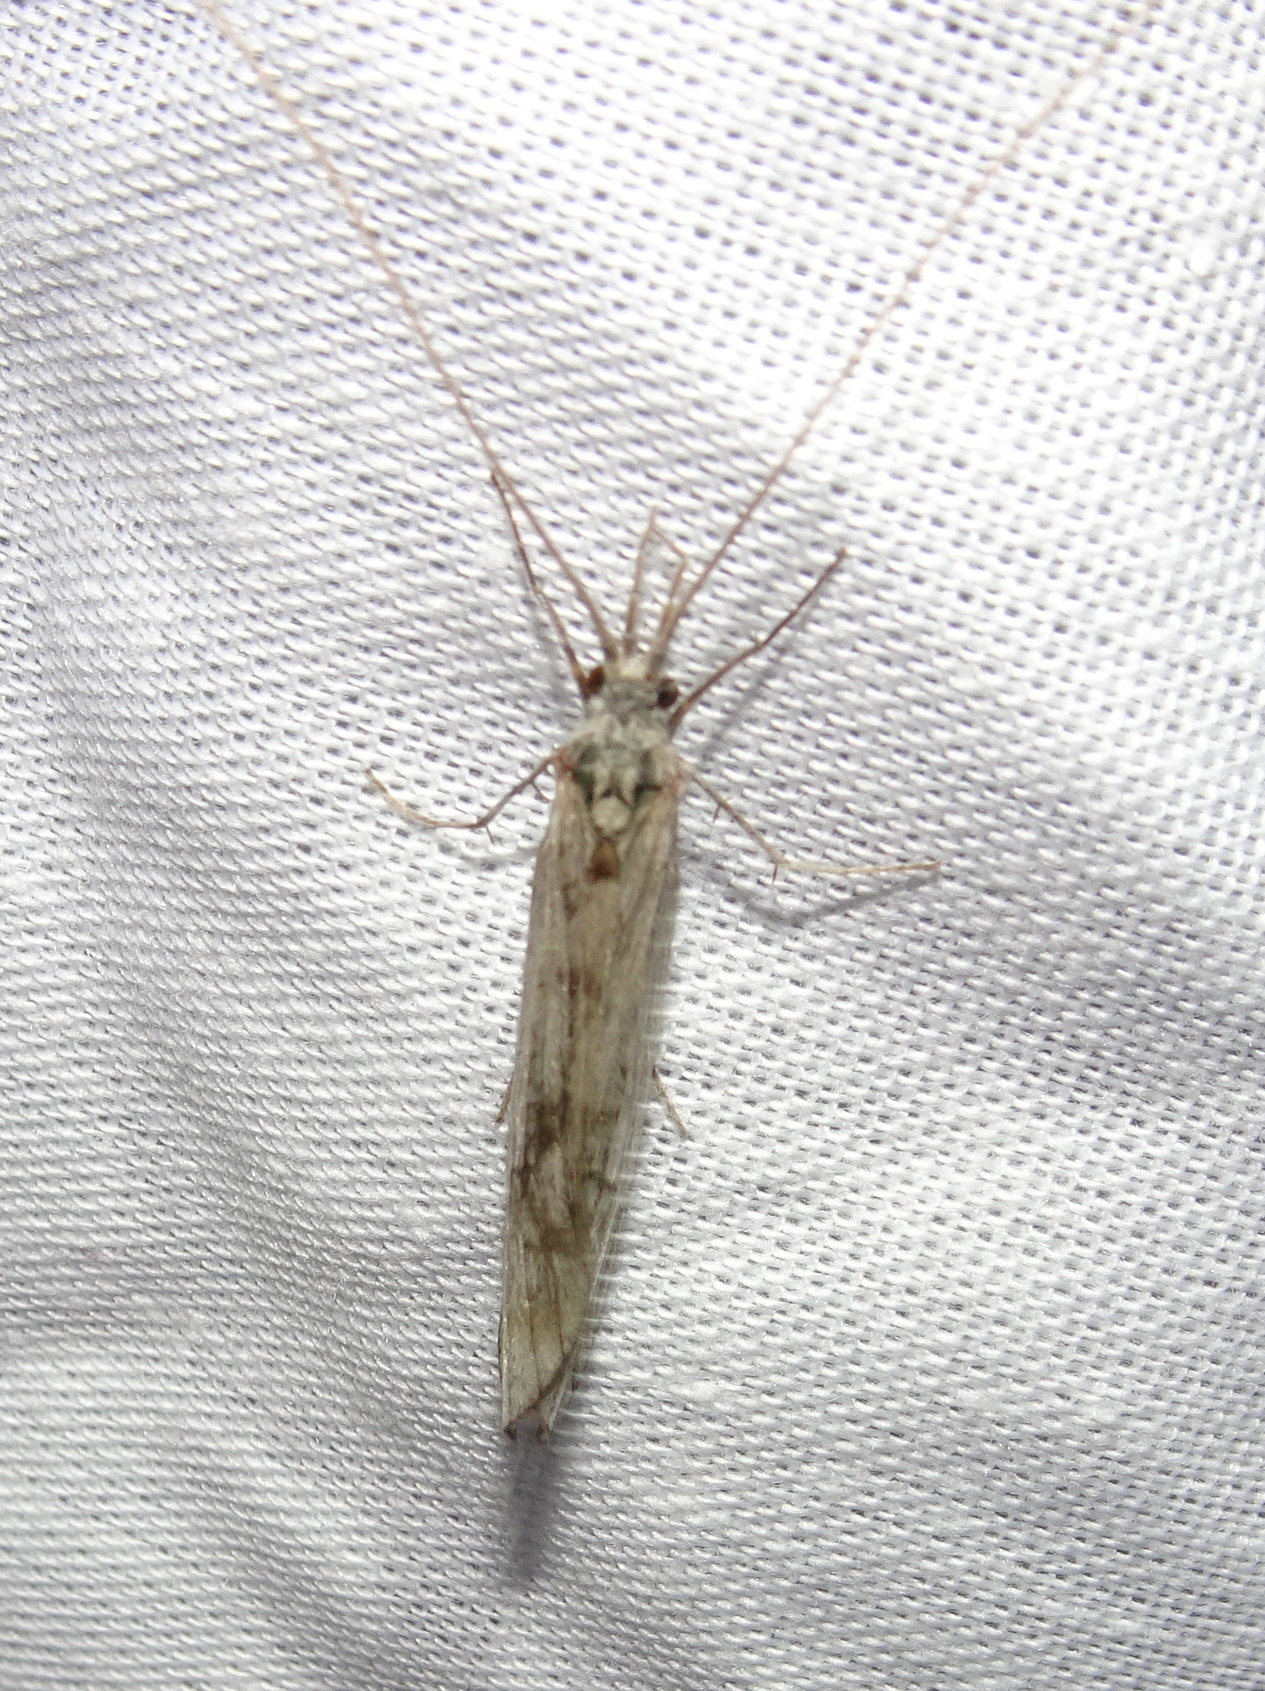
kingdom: Animalia
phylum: Arthropoda
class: Insecta
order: Trichoptera
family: Odontoceridae
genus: Odontocerum
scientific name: Odontocerum albicorne
